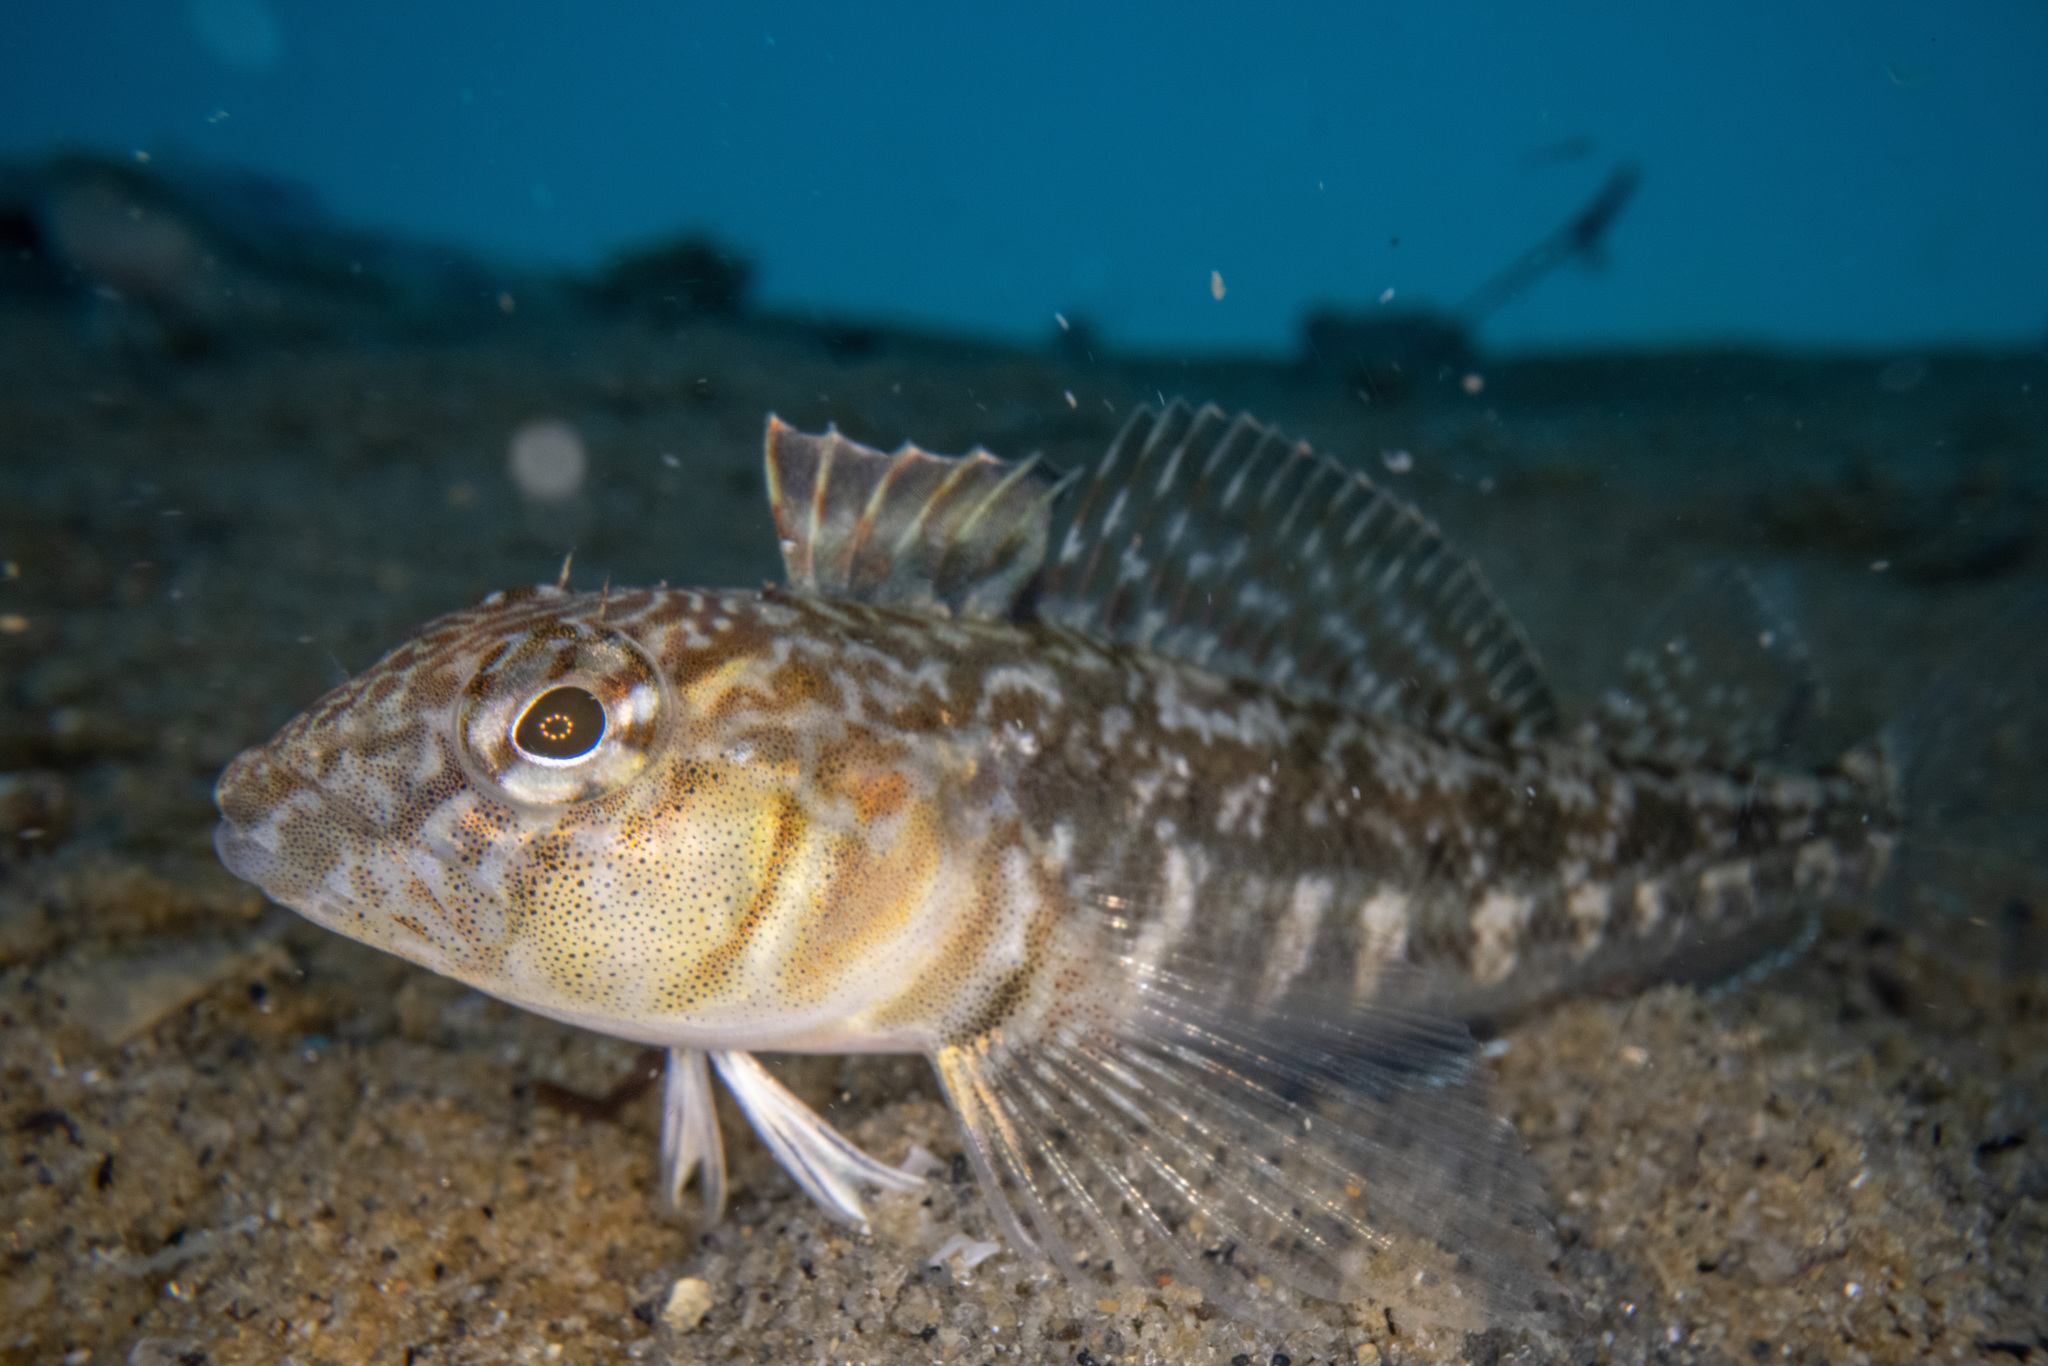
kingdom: Animalia
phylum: Chordata
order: Perciformes
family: Tripterygiidae
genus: Forsterygion
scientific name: Forsterygion nigripenne
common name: Cockabully
